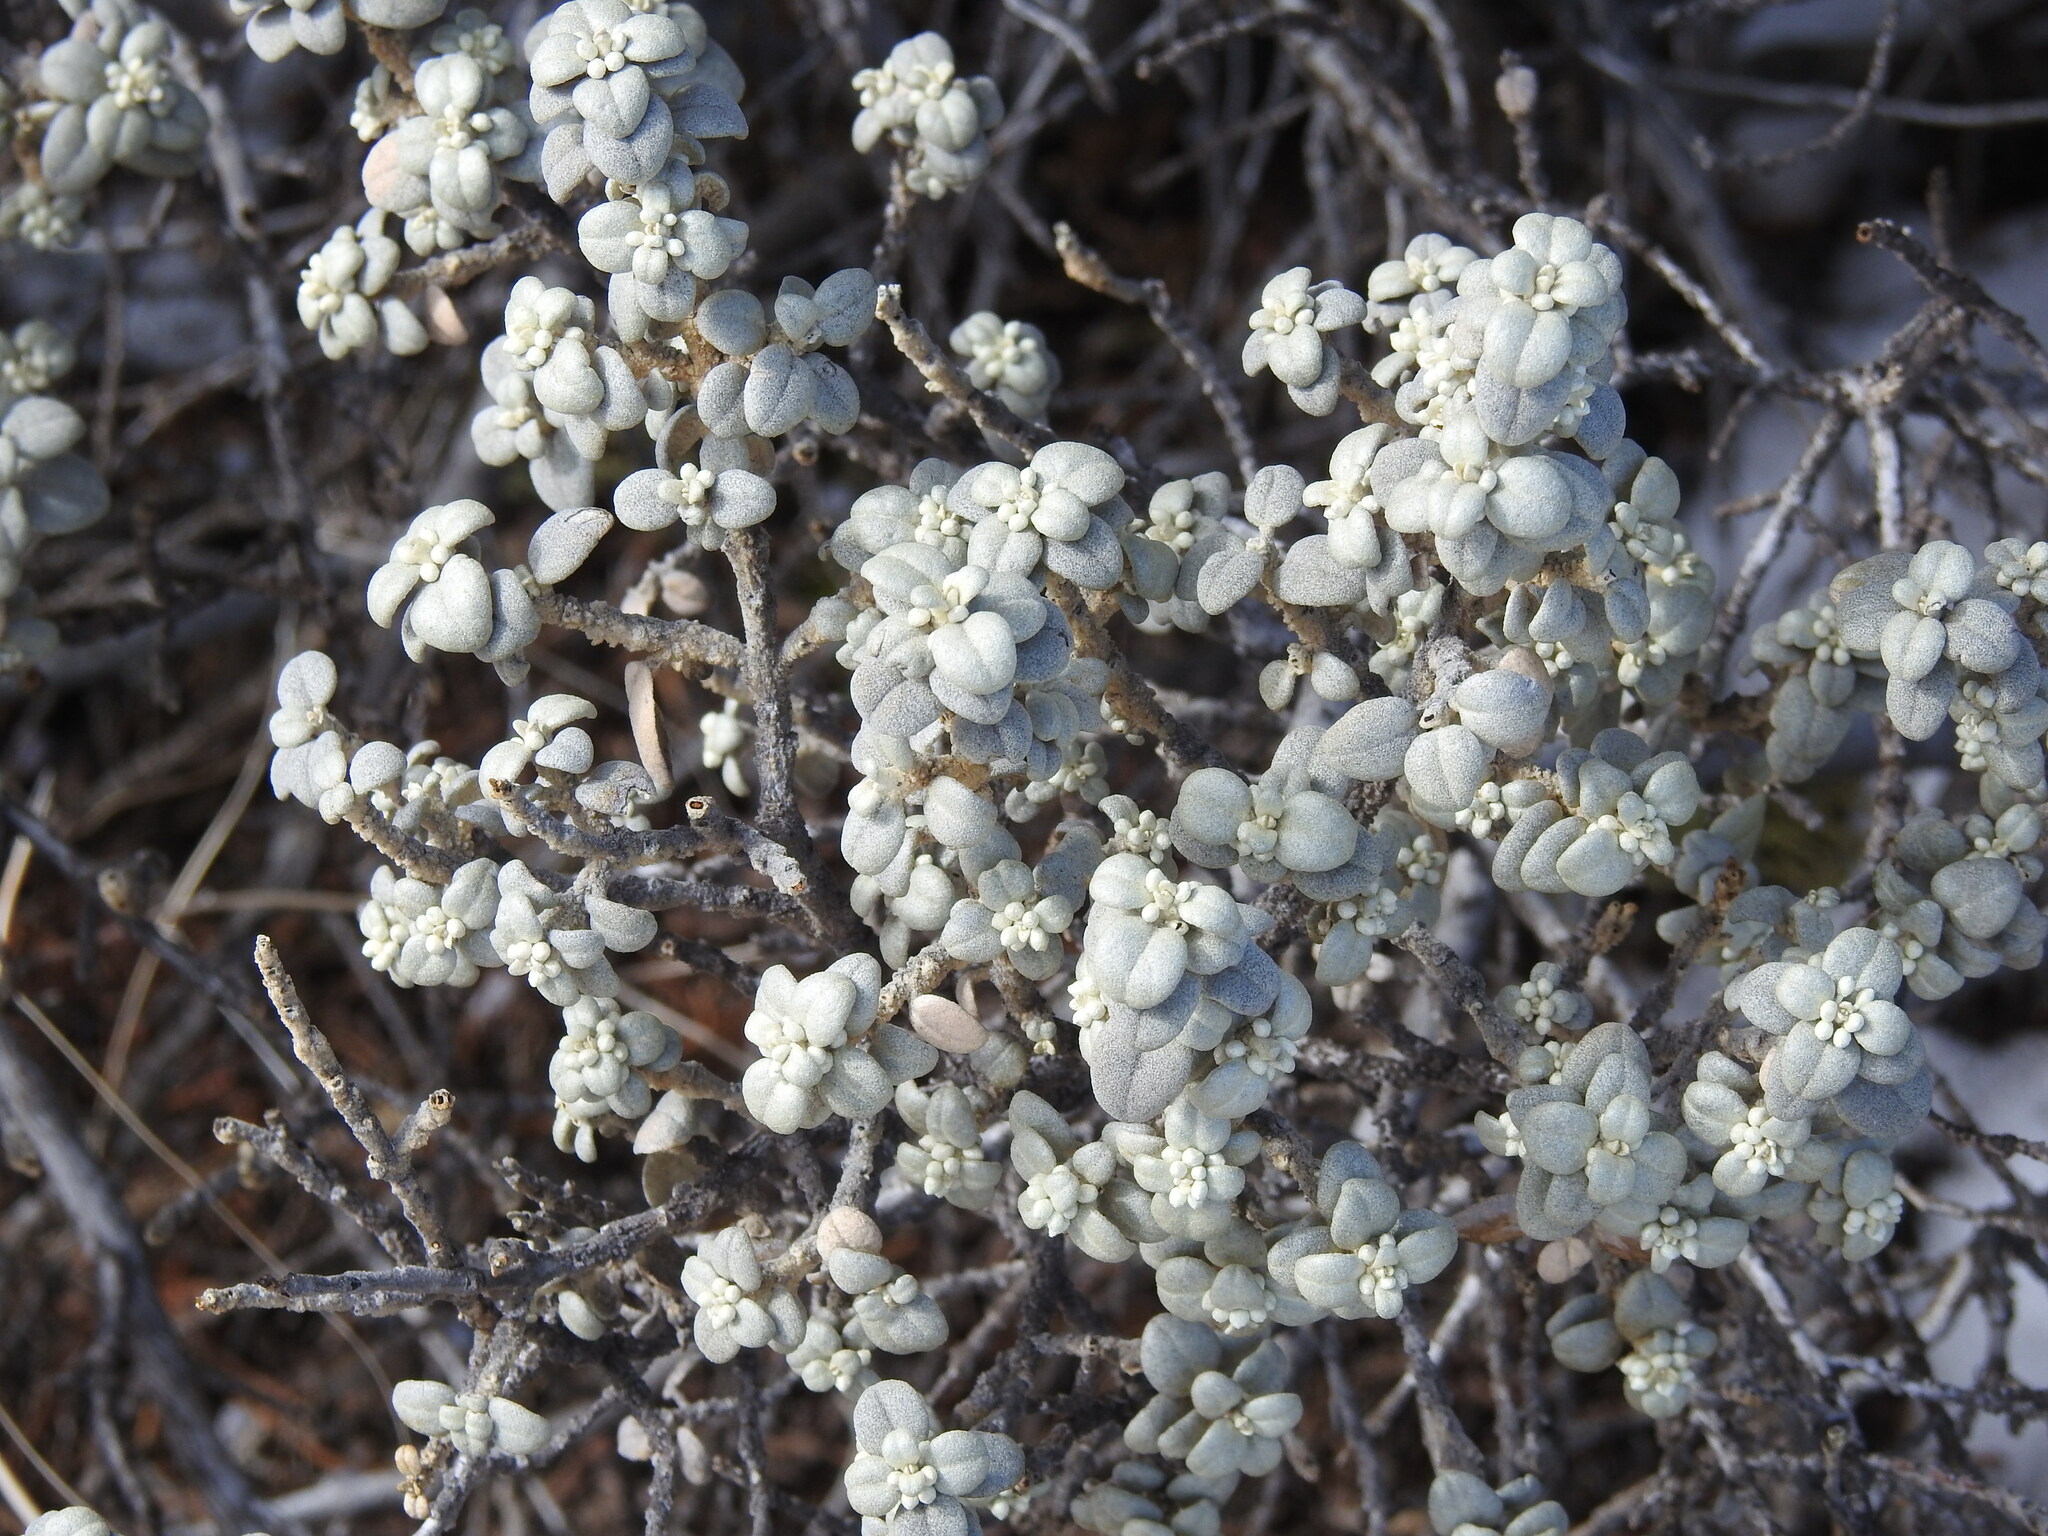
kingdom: Plantae
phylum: Tracheophyta
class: Magnoliopsida
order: Rosales
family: Elaeagnaceae
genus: Shepherdia
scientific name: Shepherdia rotundifolia
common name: Silverscale
